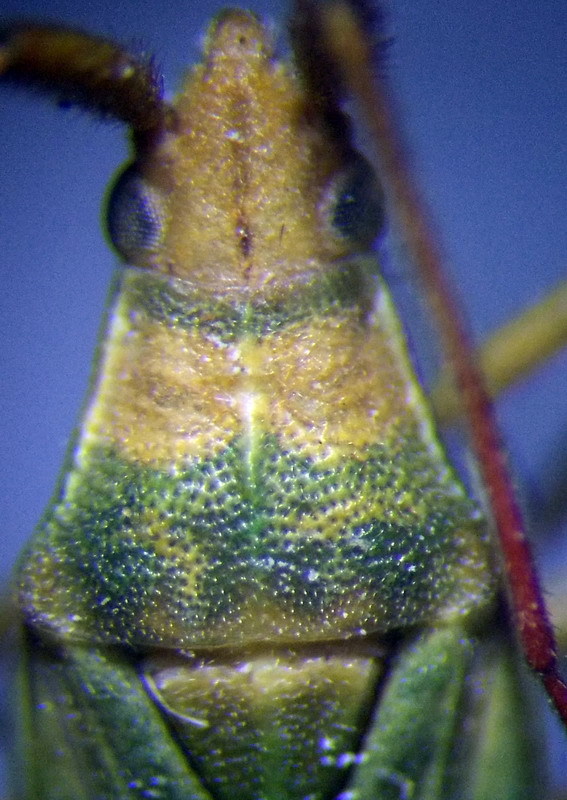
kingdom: Animalia
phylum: Arthropoda
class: Insecta
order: Hemiptera
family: Miridae
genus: Stenodema
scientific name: Stenodema calcarata
